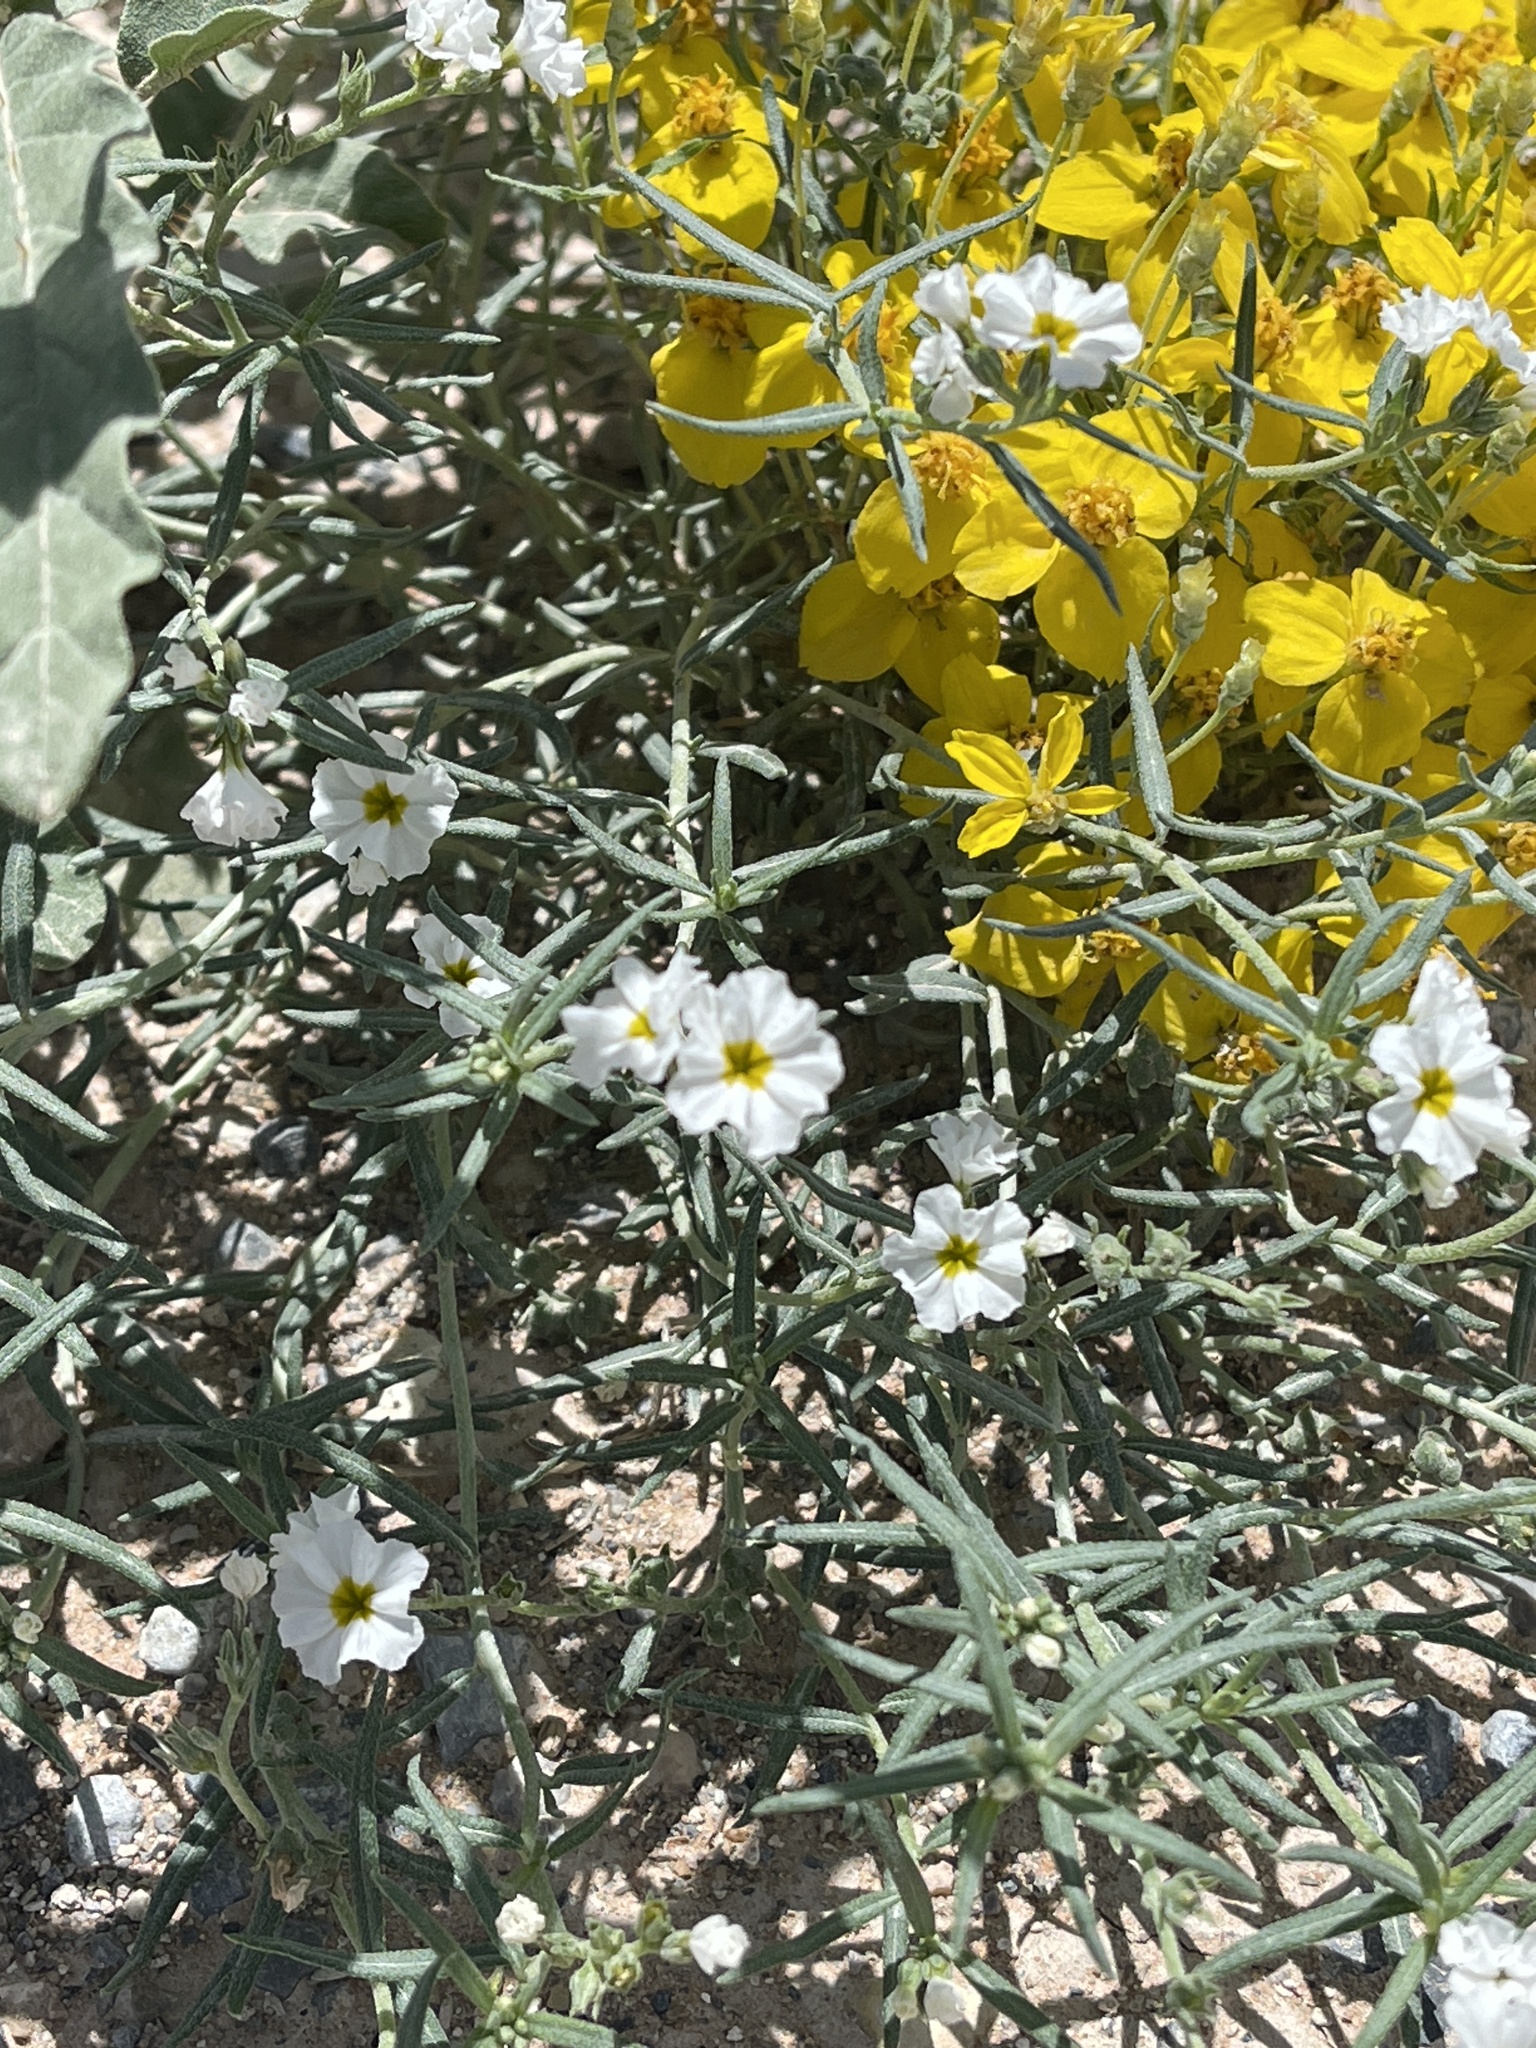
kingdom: Plantae
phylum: Tracheophyta
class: Magnoliopsida
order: Boraginales
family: Heliotropiaceae
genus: Euploca
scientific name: Euploca greggii
